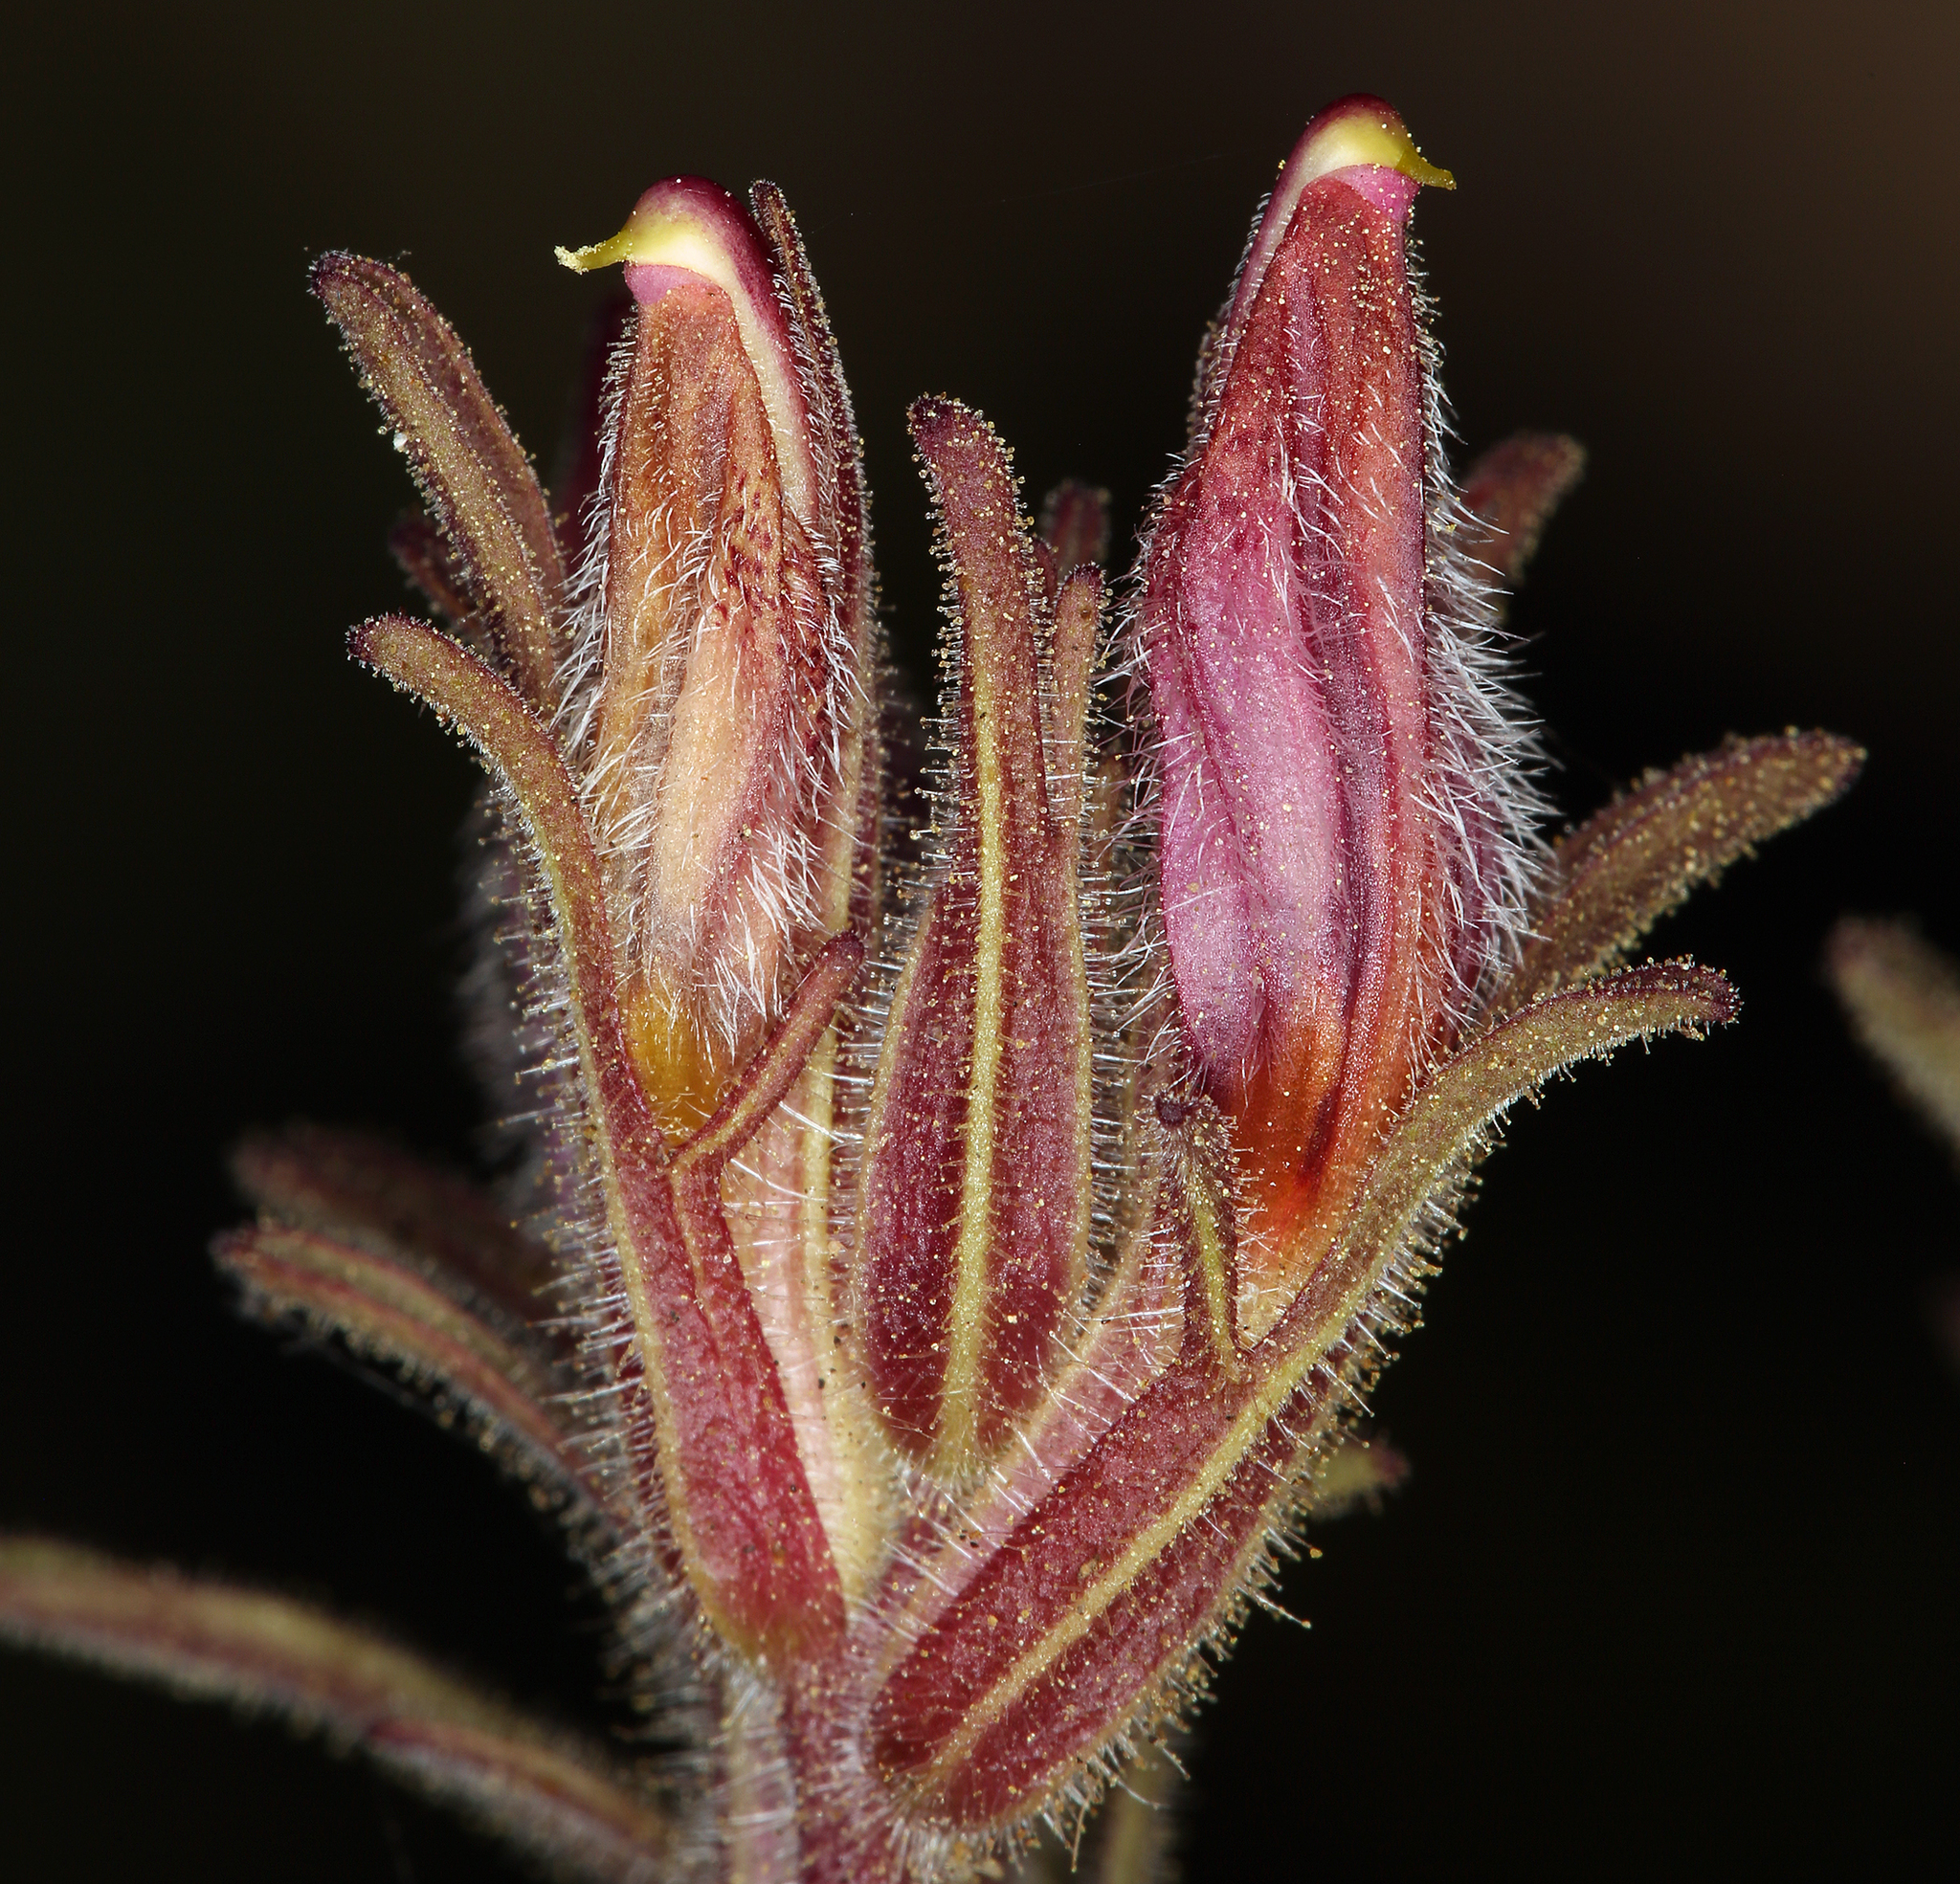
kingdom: Plantae
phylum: Tracheophyta
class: Magnoliopsida
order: Lamiales
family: Orobanchaceae
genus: Cordylanthus
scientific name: Cordylanthus kingii
